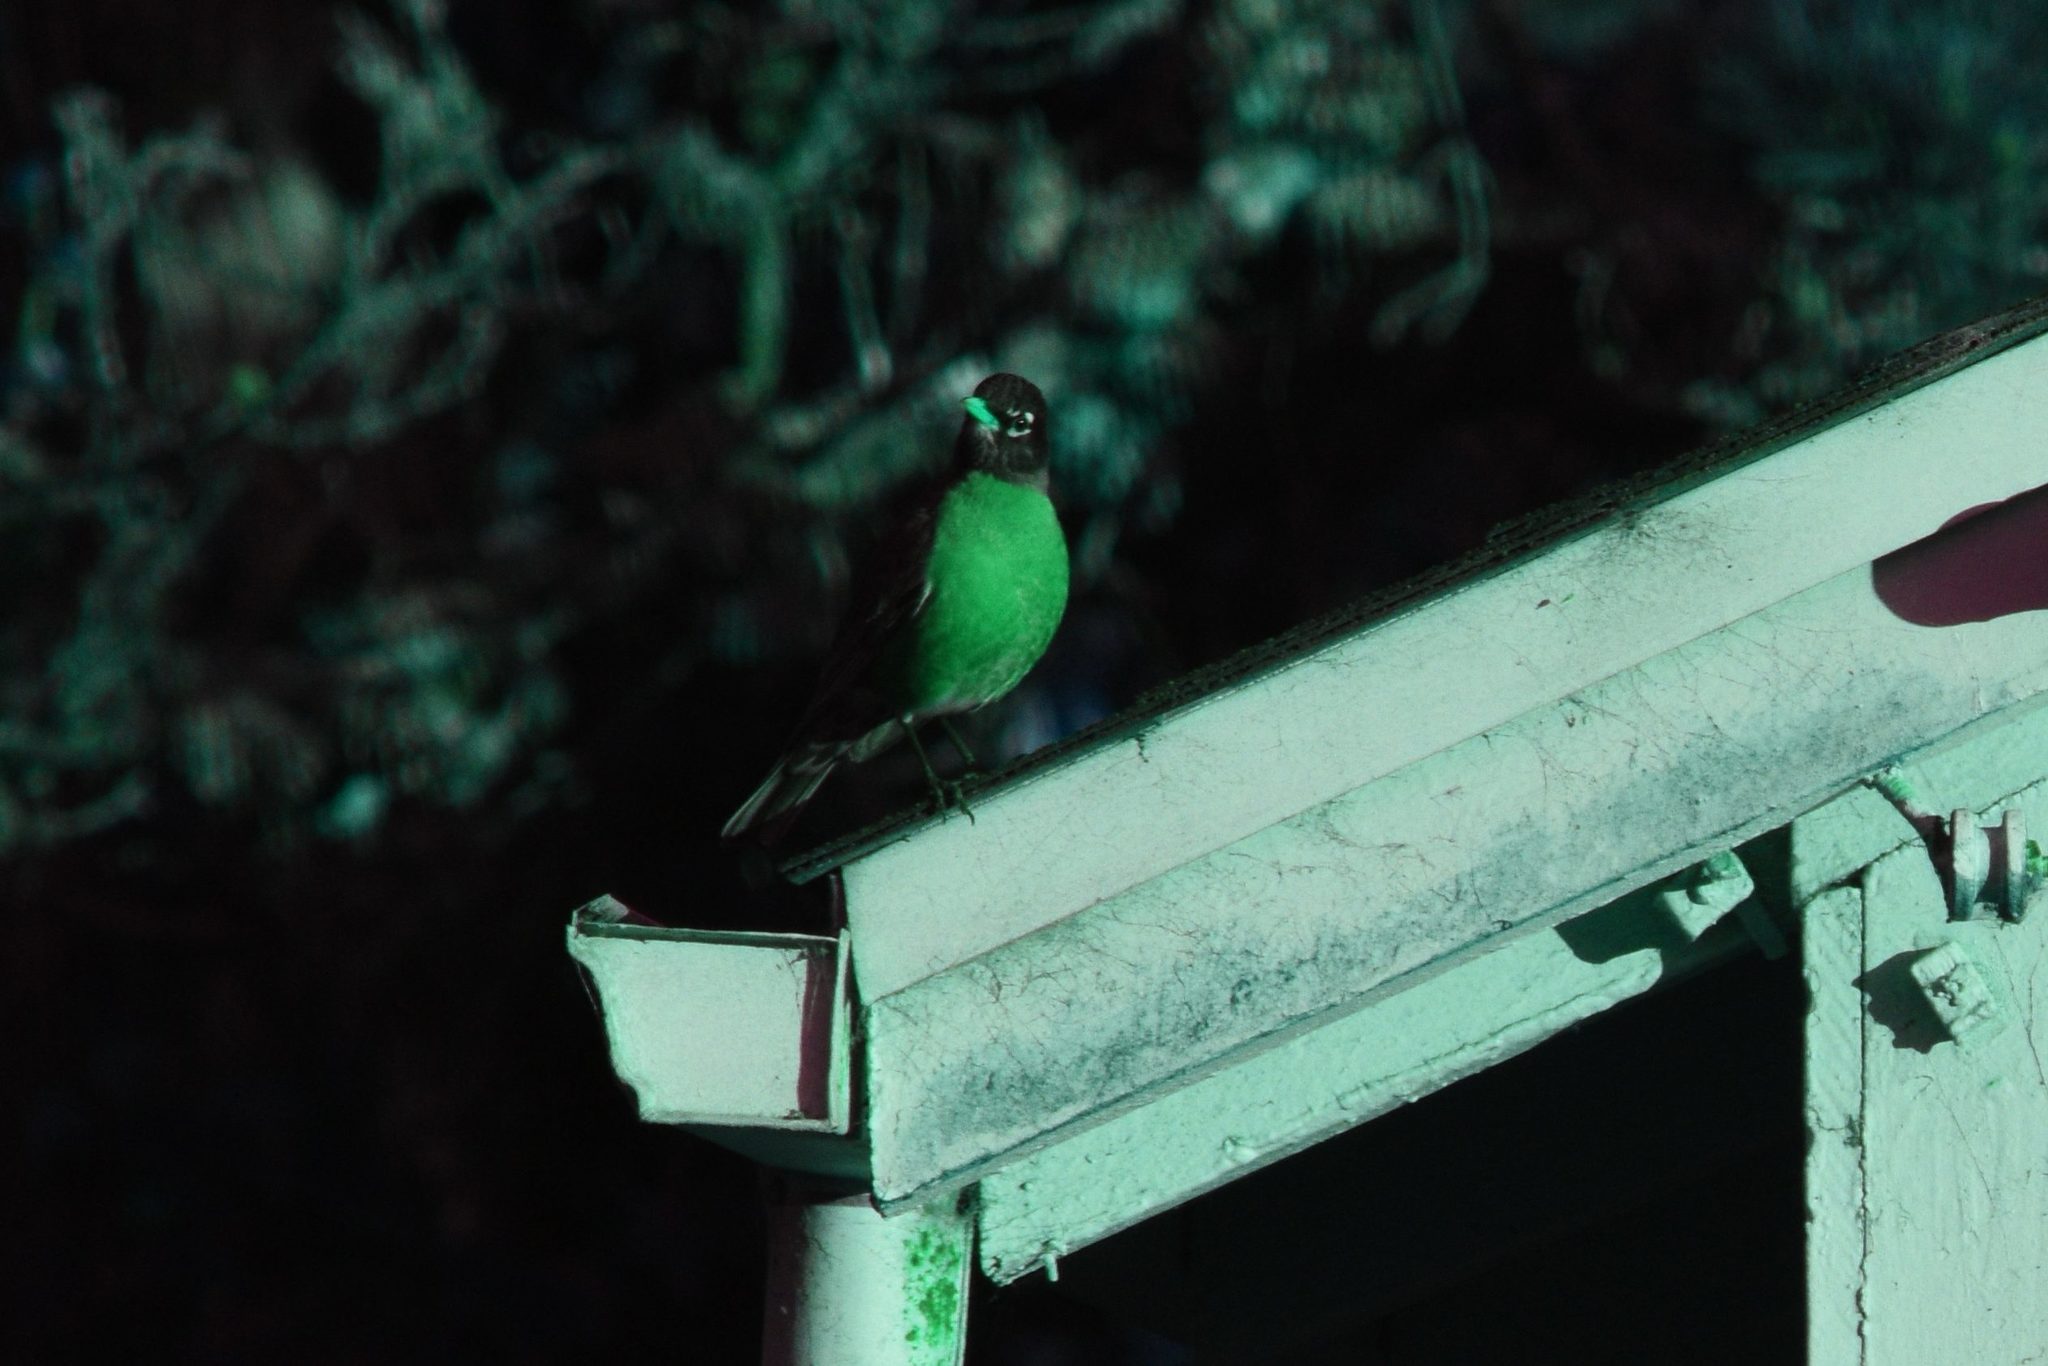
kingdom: Animalia
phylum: Chordata
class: Aves
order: Passeriformes
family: Turdidae
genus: Turdus
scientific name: Turdus migratorius
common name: American robin
